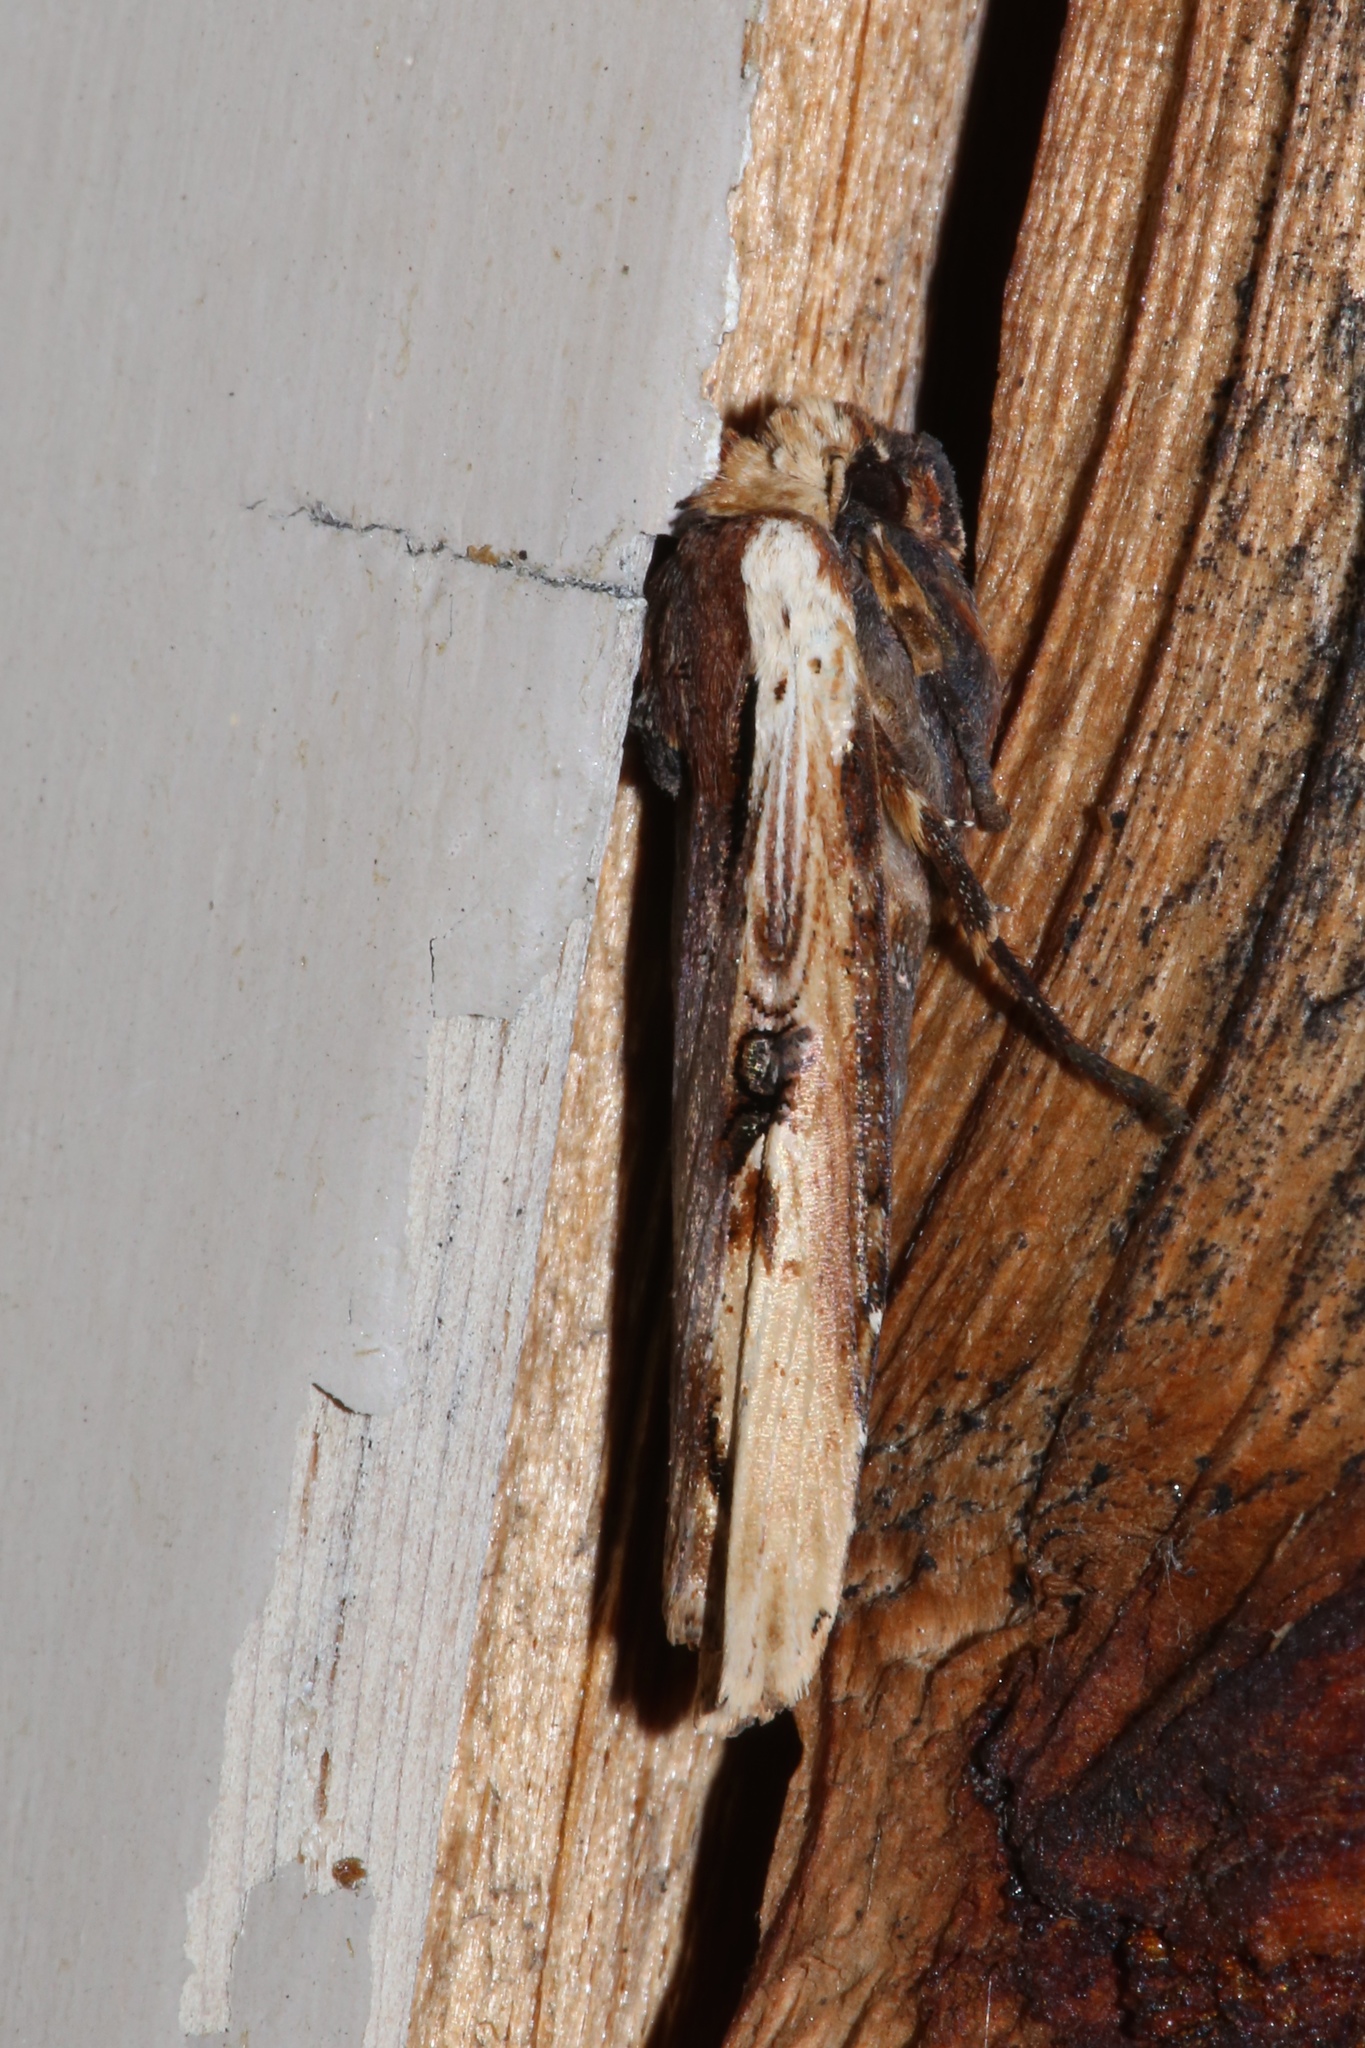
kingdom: Animalia
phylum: Arthropoda
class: Insecta
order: Lepidoptera
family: Noctuidae
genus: Xylena
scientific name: Xylena curvimacula
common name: Dot-and-dash swordgrass moth
